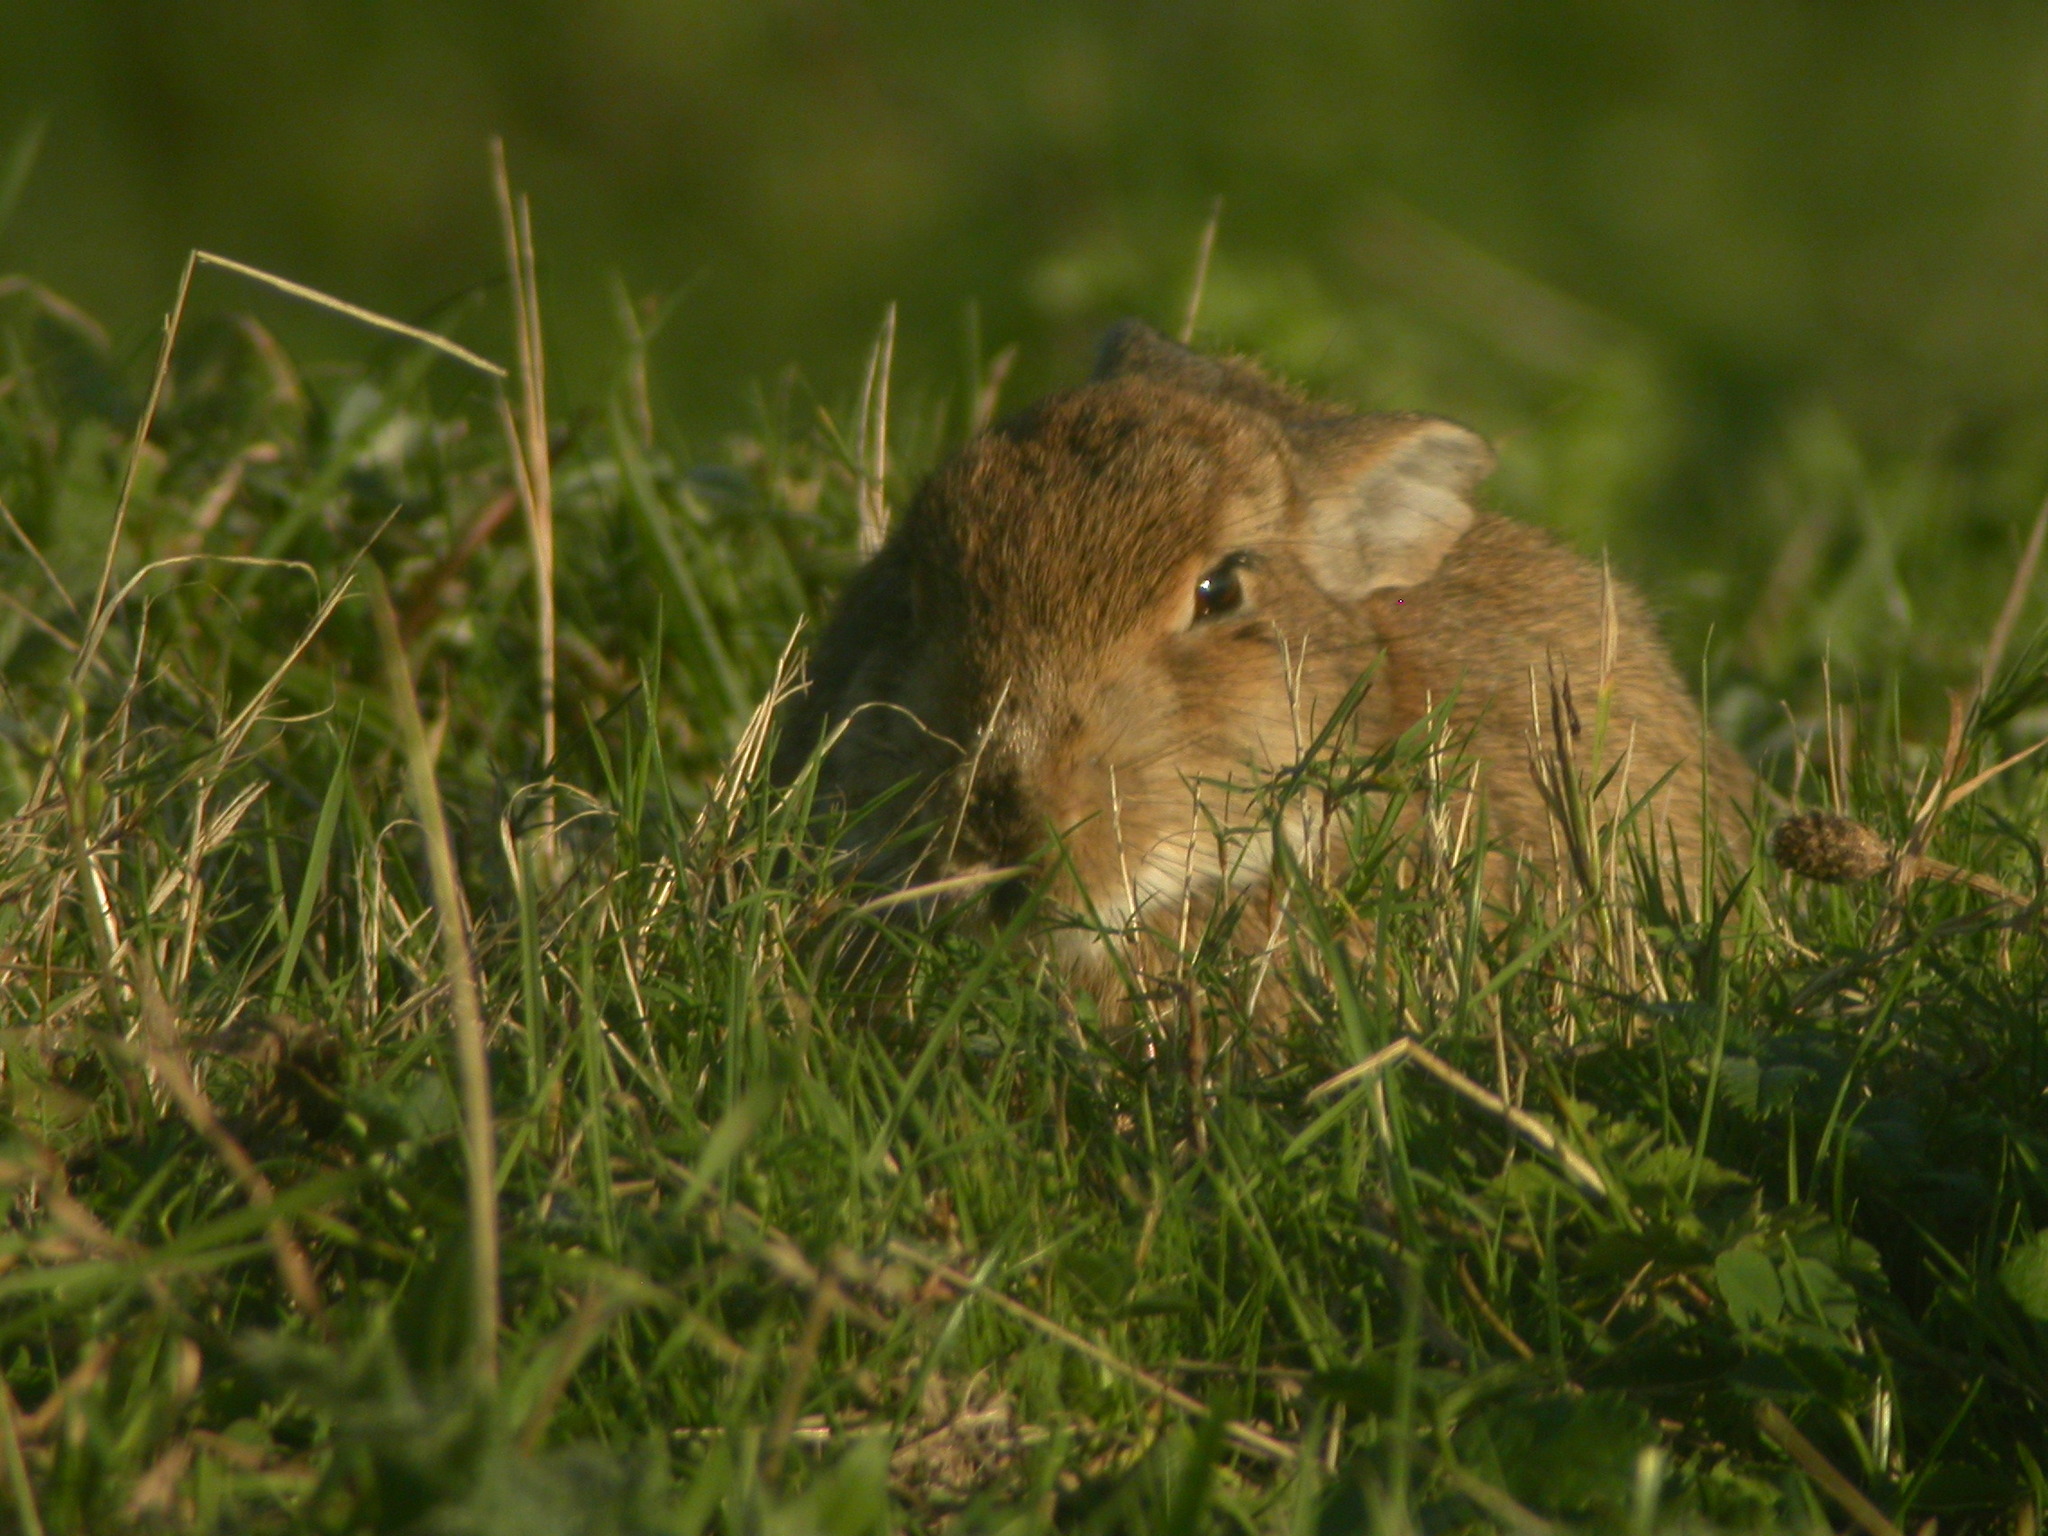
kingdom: Animalia
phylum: Chordata
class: Mammalia
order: Lagomorpha
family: Leporidae
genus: Oryctolagus
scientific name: Oryctolagus cuniculus
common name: European rabbit
